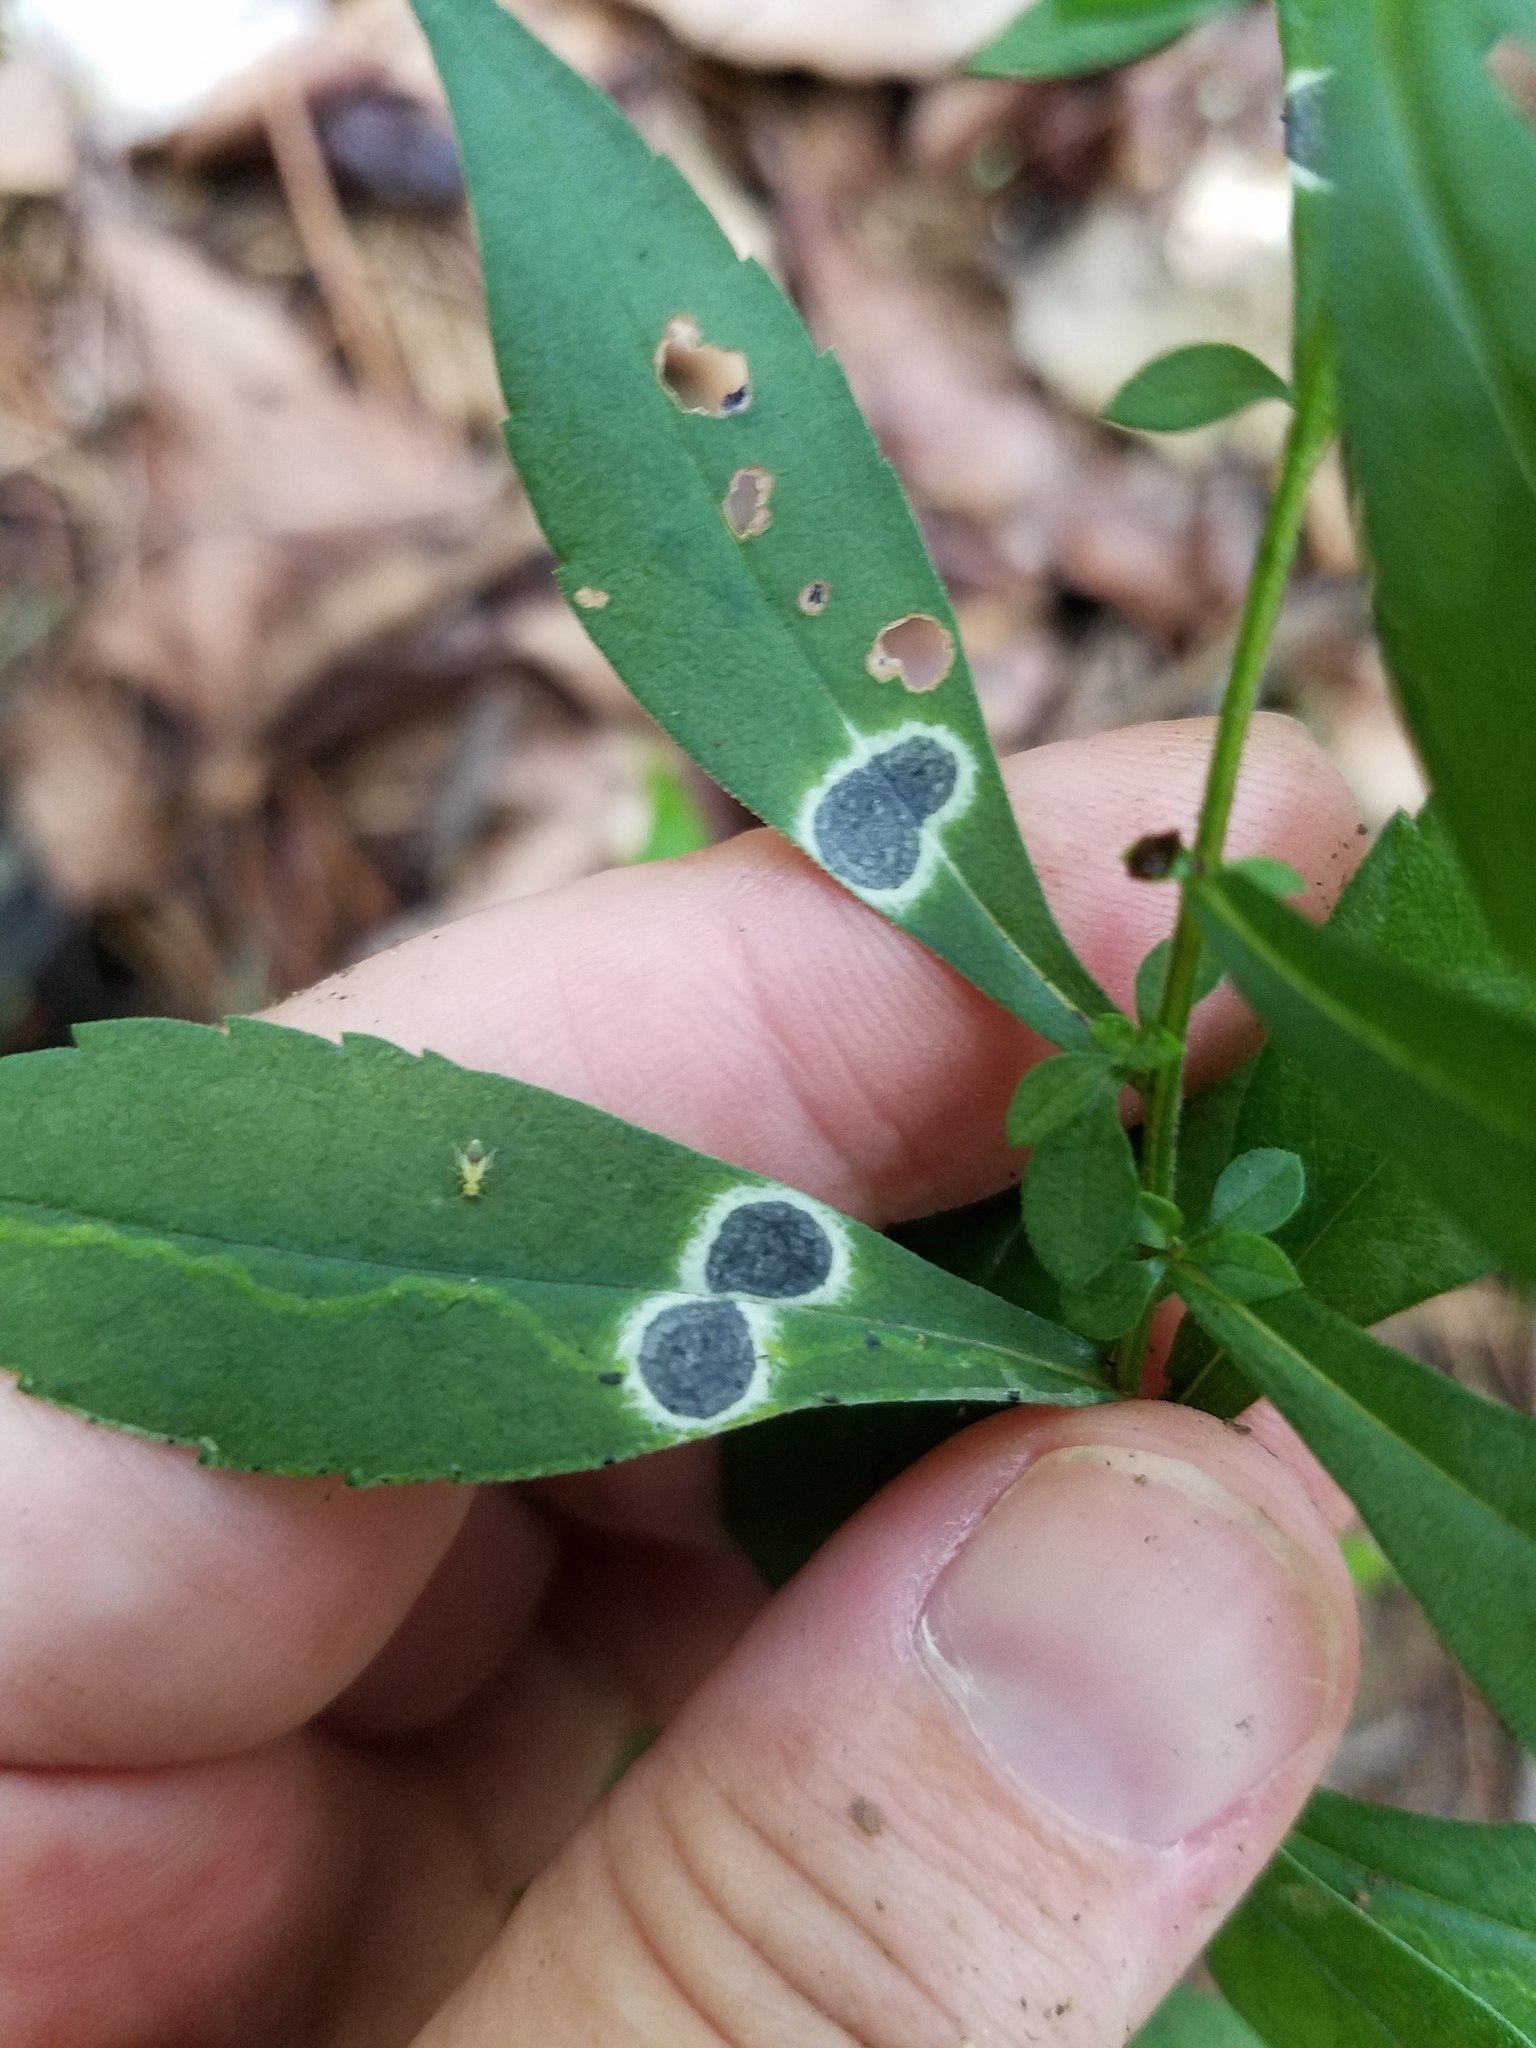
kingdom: Fungi
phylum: Ascomycota
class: Dothideomycetes
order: Botryosphaeriales
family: Botryosphaeriaceae
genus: Botryosphaeria
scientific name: Botryosphaeria dothidea
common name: Asteromyia gall midge fungus
